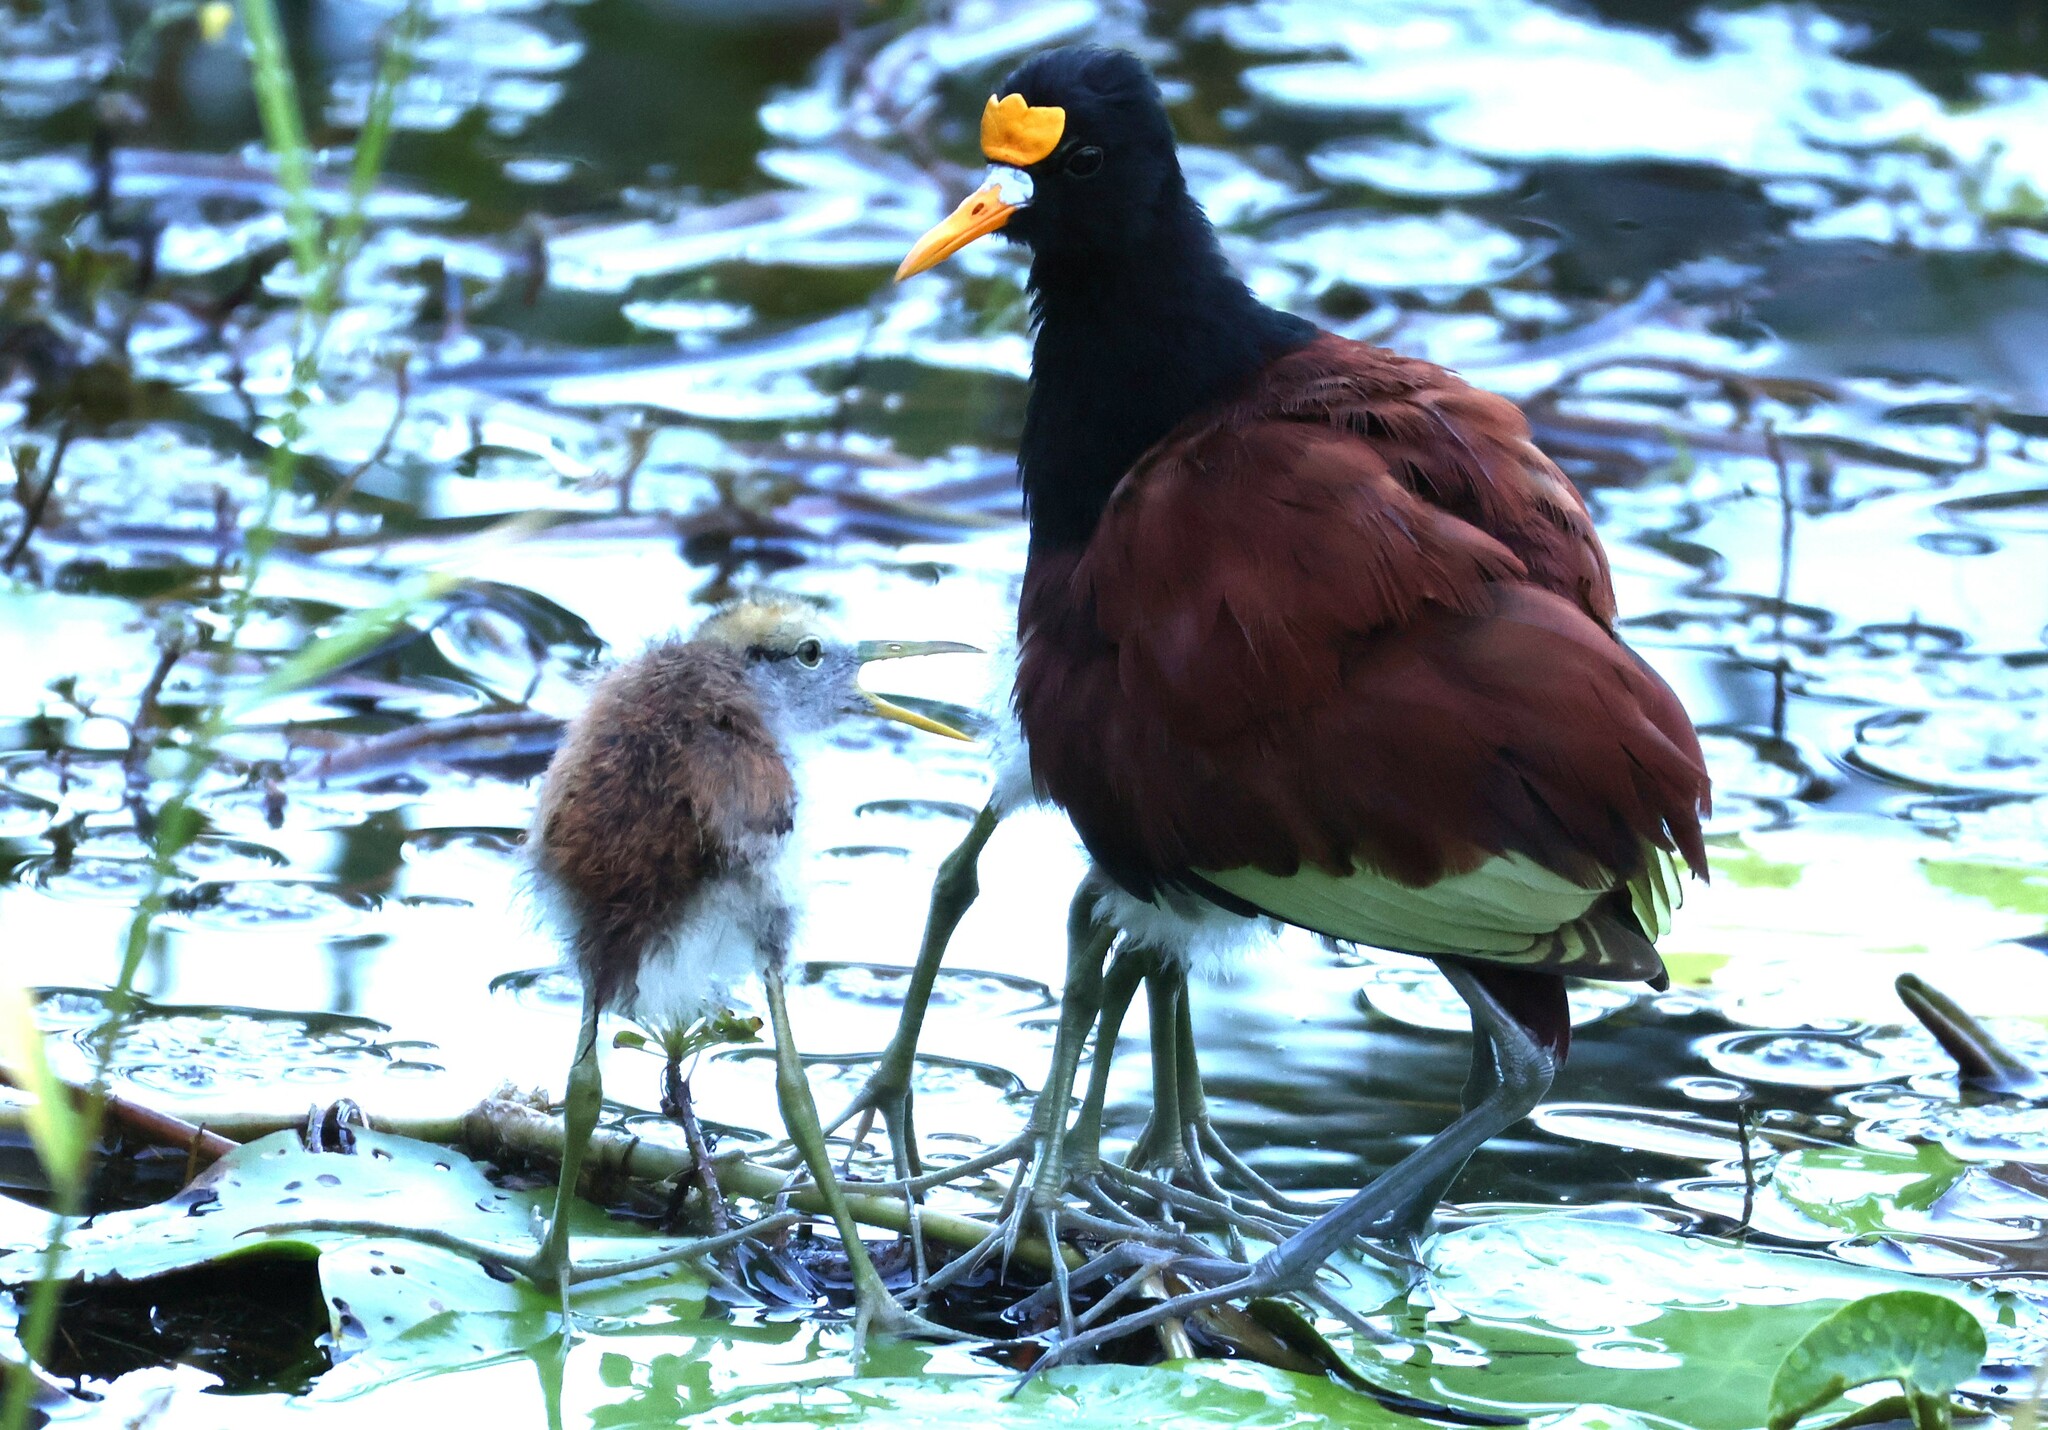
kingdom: Animalia
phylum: Chordata
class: Aves
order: Charadriiformes
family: Jacanidae
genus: Jacana
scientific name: Jacana spinosa
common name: Northern jacana
